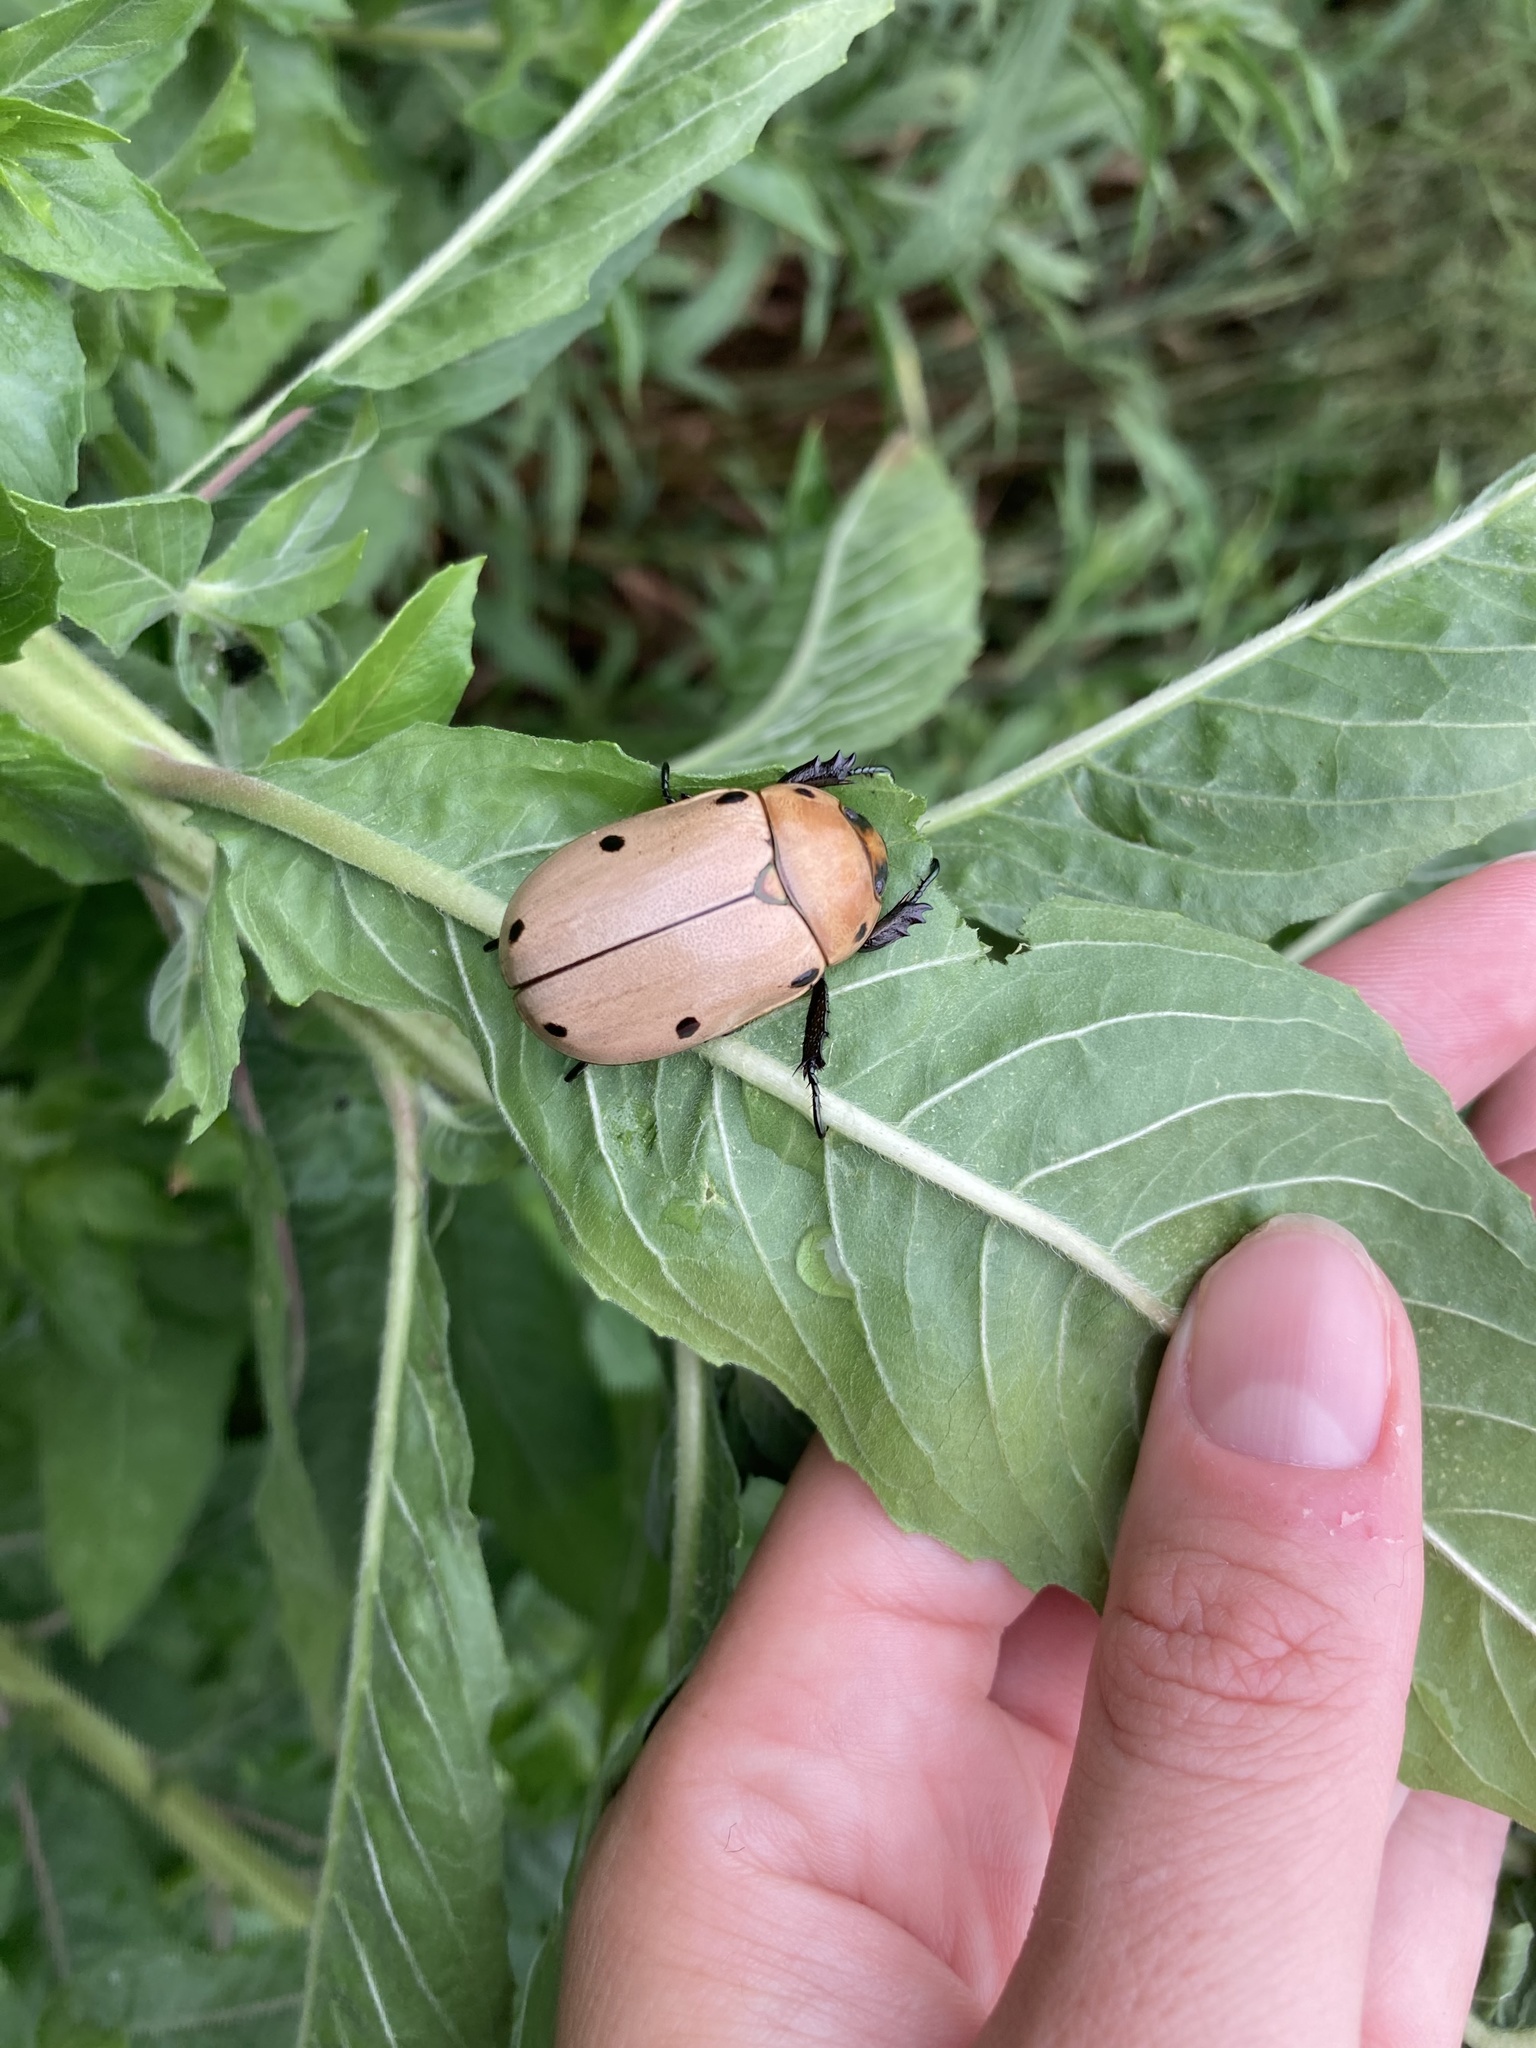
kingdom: Animalia
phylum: Arthropoda
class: Insecta
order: Coleoptera
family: Scarabaeidae
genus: Pelidnota
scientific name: Pelidnota punctata
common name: Grapevine beetle
